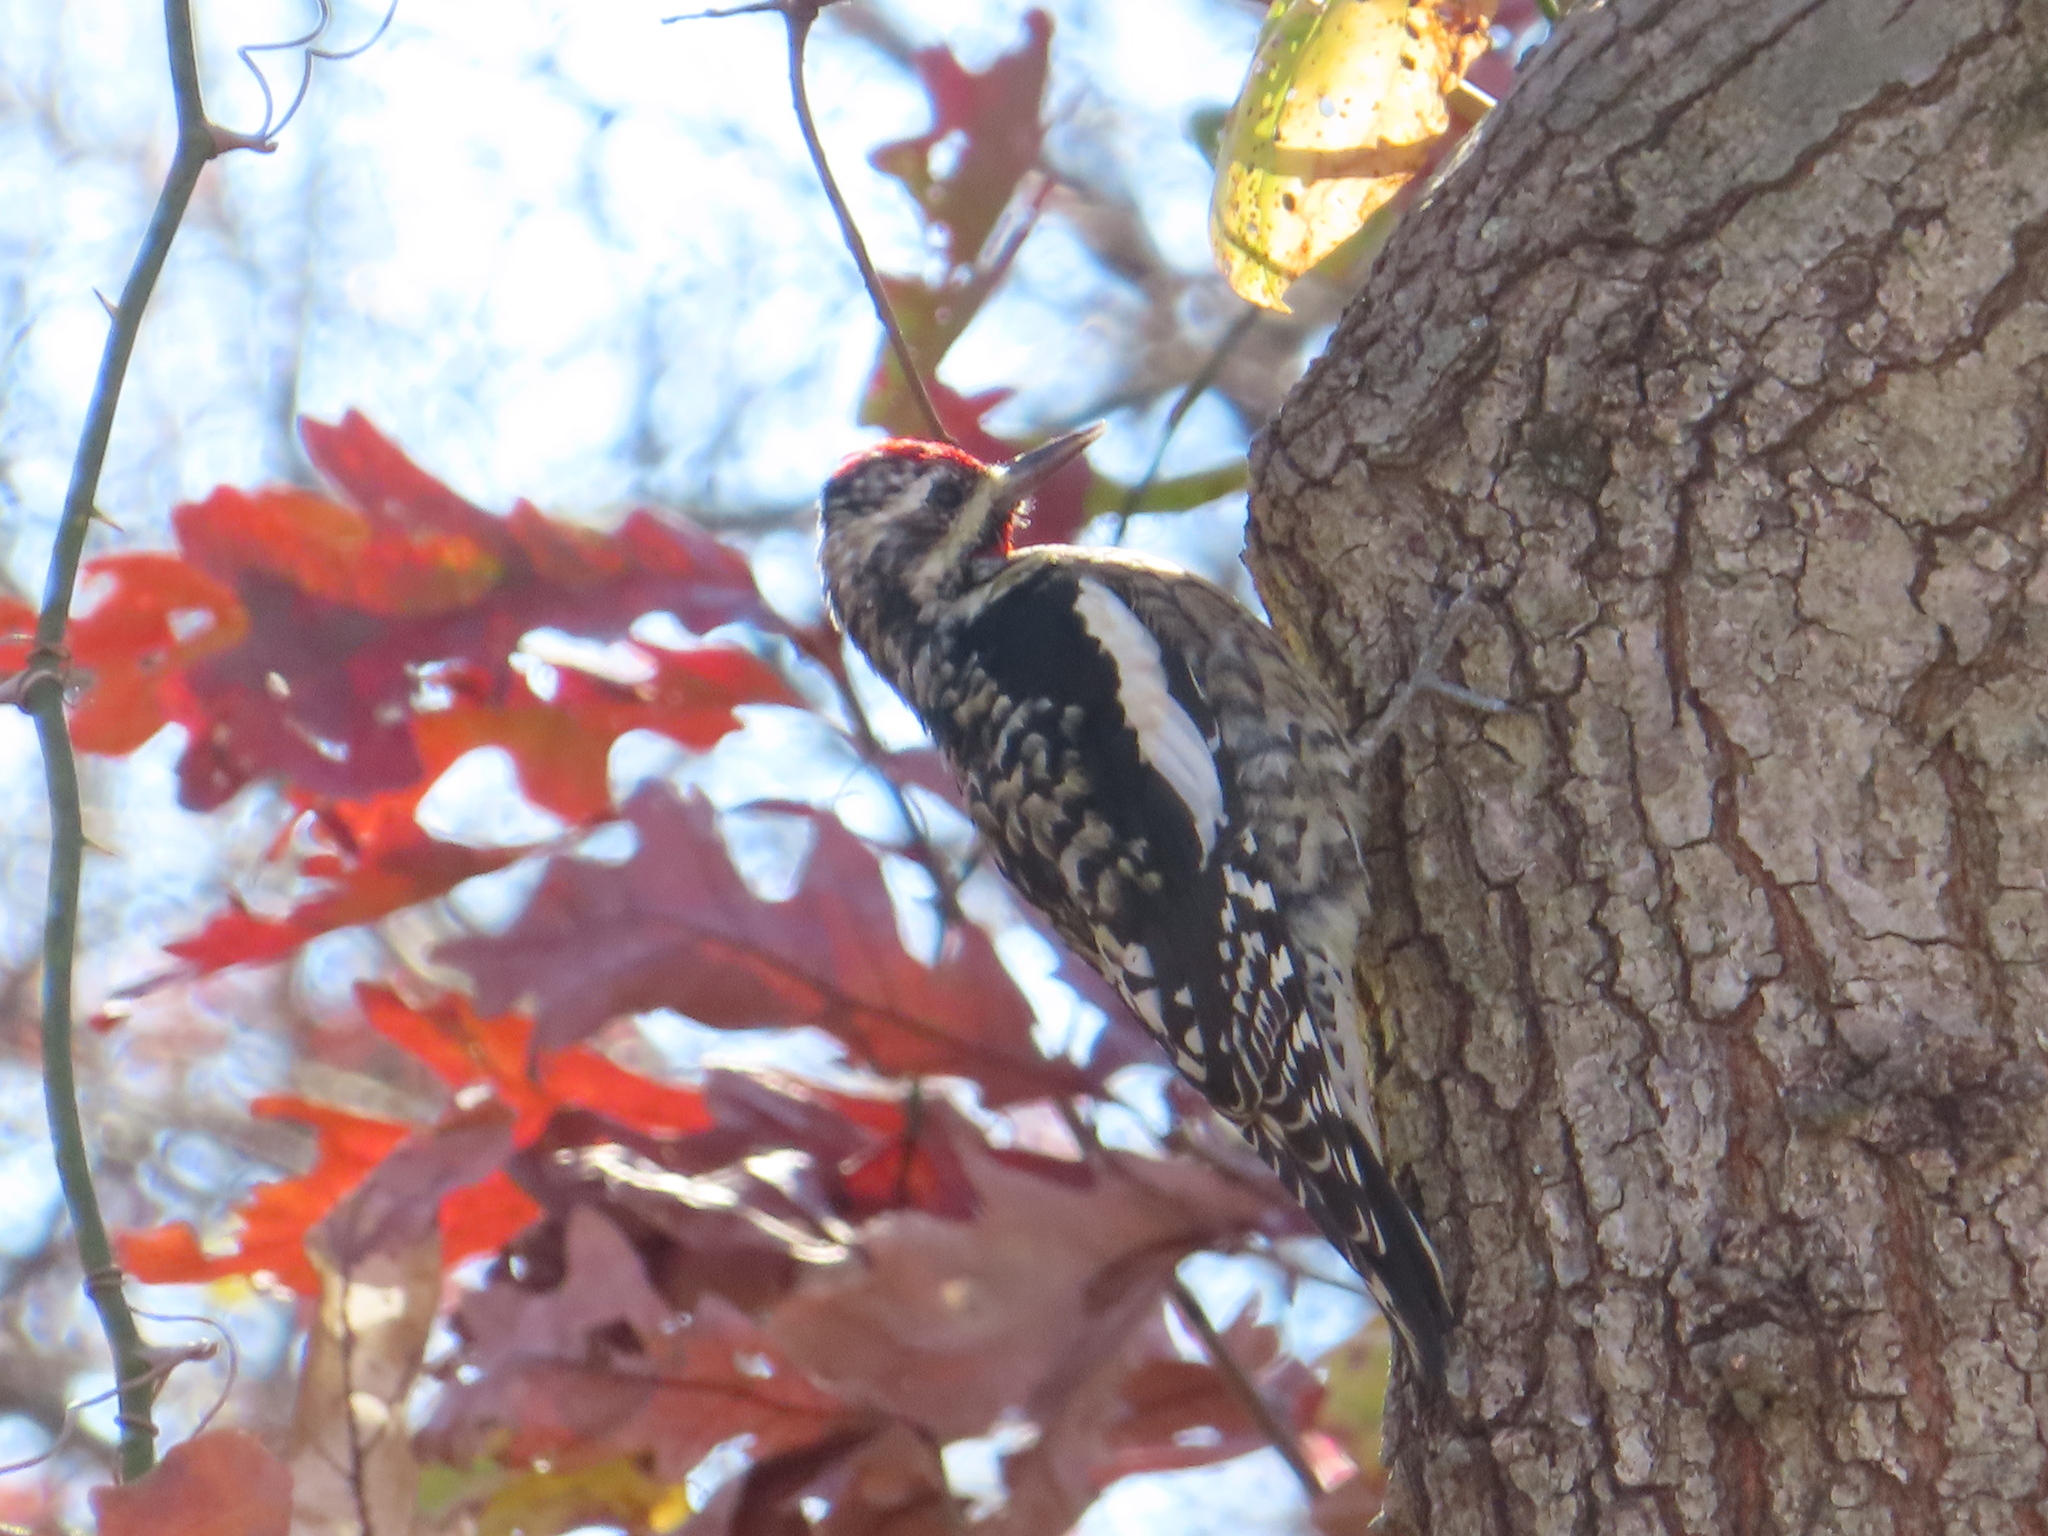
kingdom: Animalia
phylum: Chordata
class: Aves
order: Piciformes
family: Picidae
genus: Sphyrapicus
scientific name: Sphyrapicus varius
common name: Yellow-bellied sapsucker
